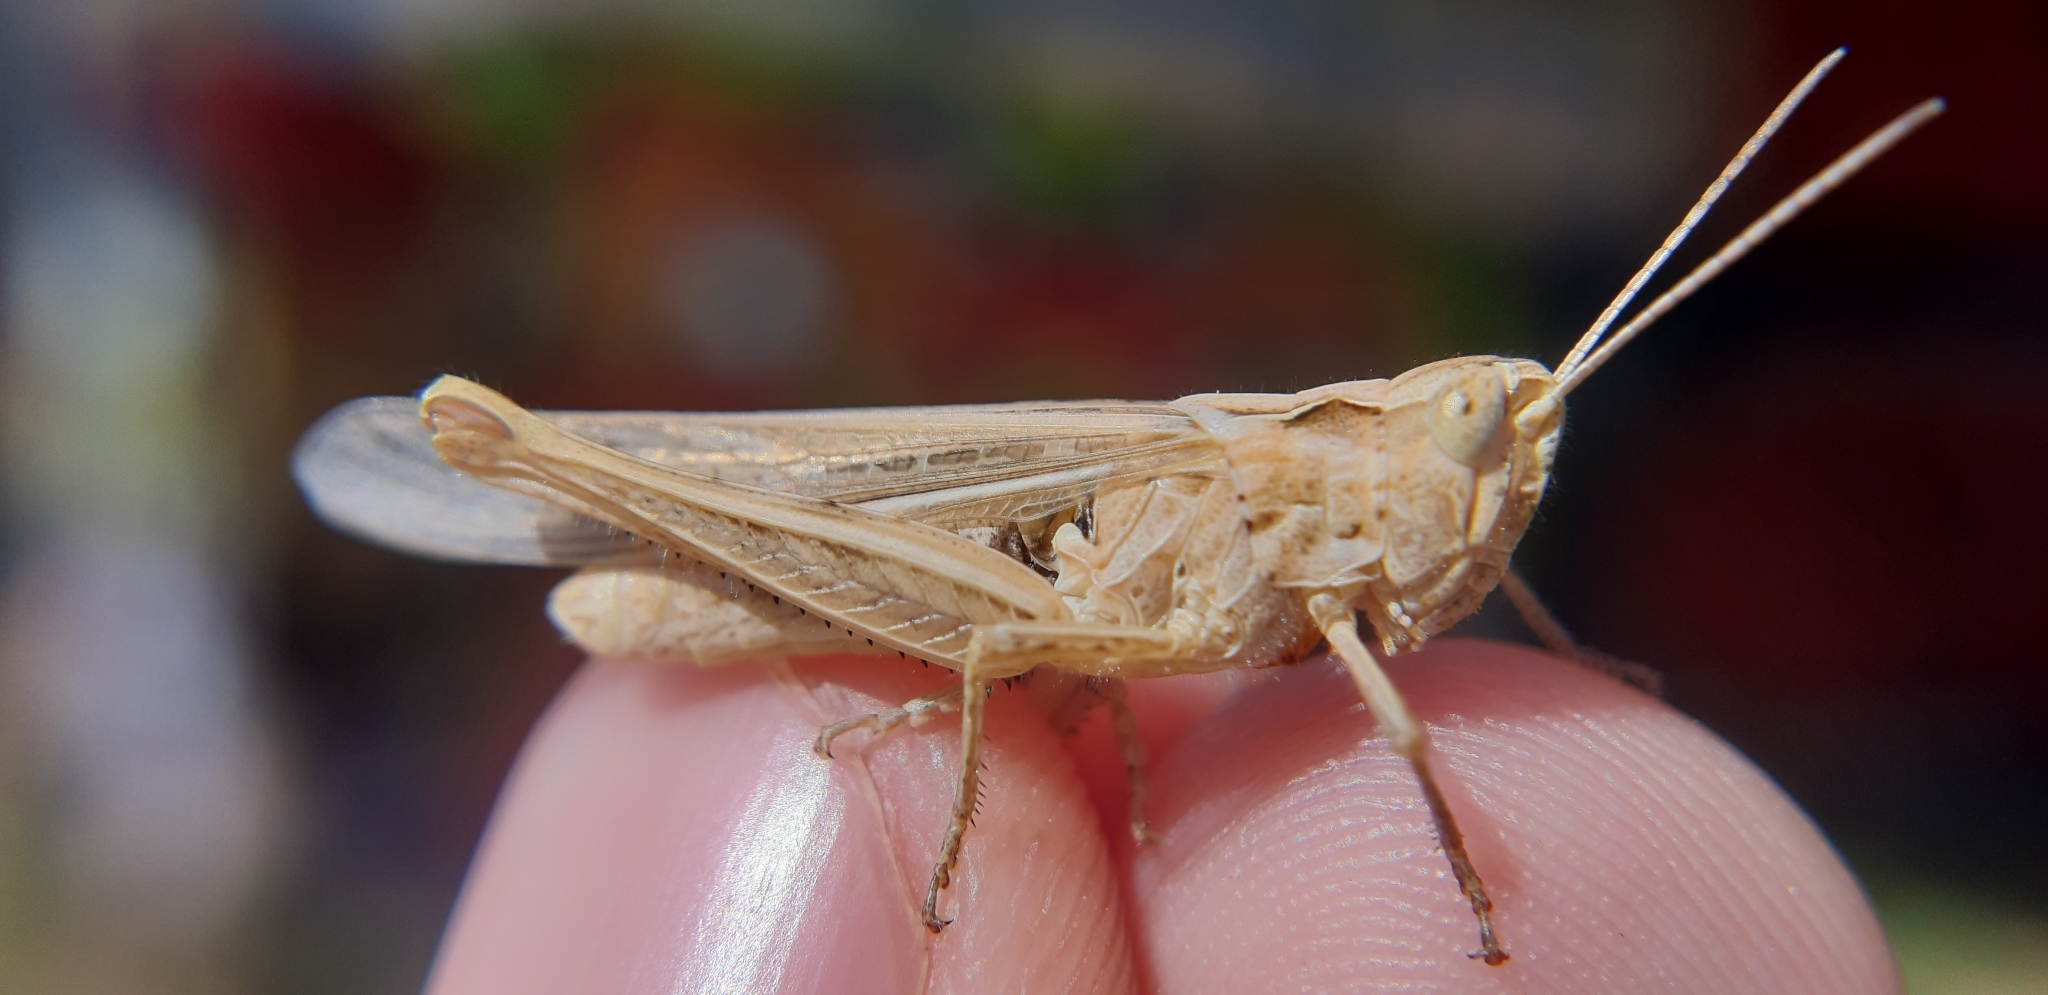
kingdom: Animalia
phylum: Arthropoda
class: Insecta
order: Orthoptera
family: Acrididae
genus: Chorthippus
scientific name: Chorthippus brunneus
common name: Field grasshopper
